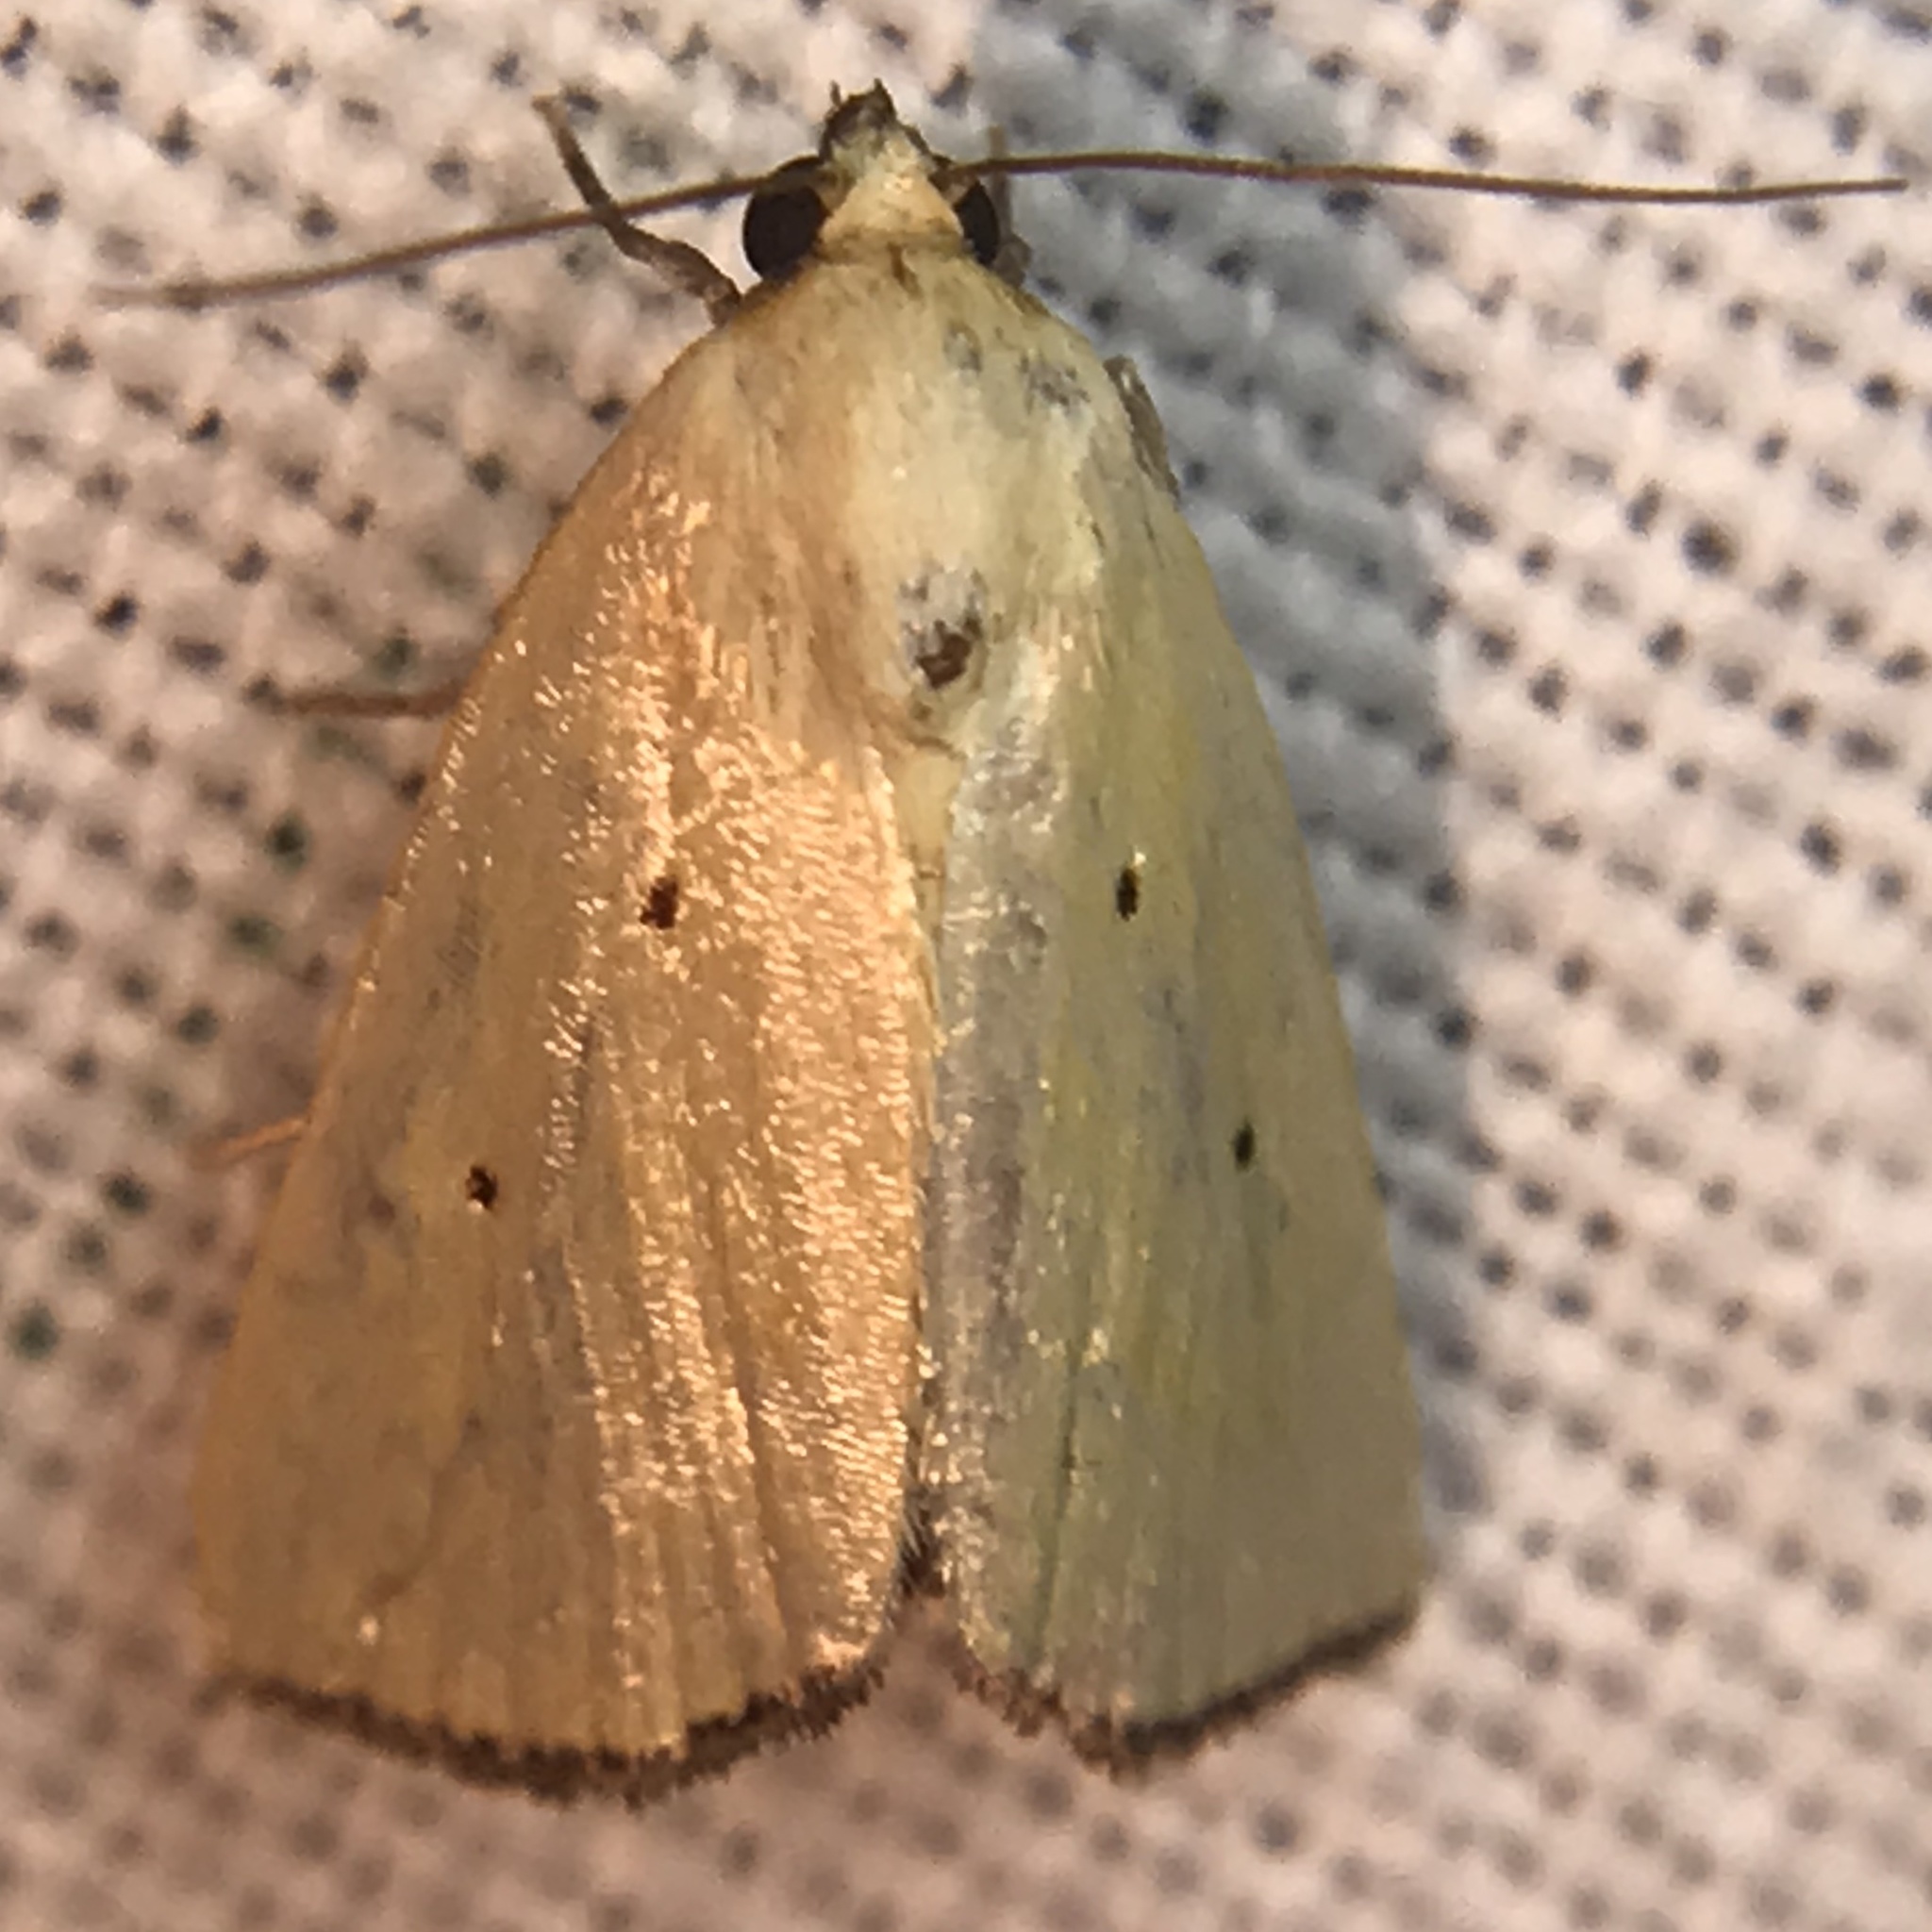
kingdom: Animalia
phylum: Arthropoda
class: Insecta
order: Lepidoptera
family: Noctuidae
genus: Marimatha
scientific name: Marimatha nigrofimbria
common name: Black-bordered lemon moth
